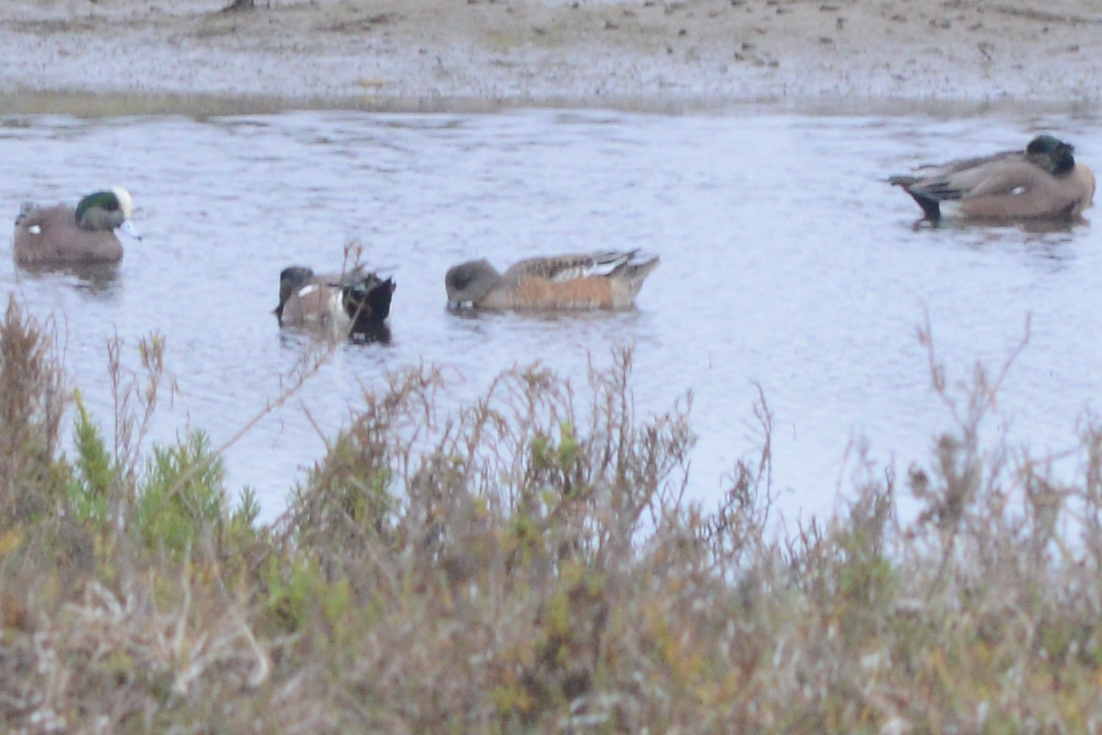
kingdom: Animalia
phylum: Chordata
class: Aves
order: Anseriformes
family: Anatidae
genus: Mareca
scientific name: Mareca americana
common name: American wigeon
